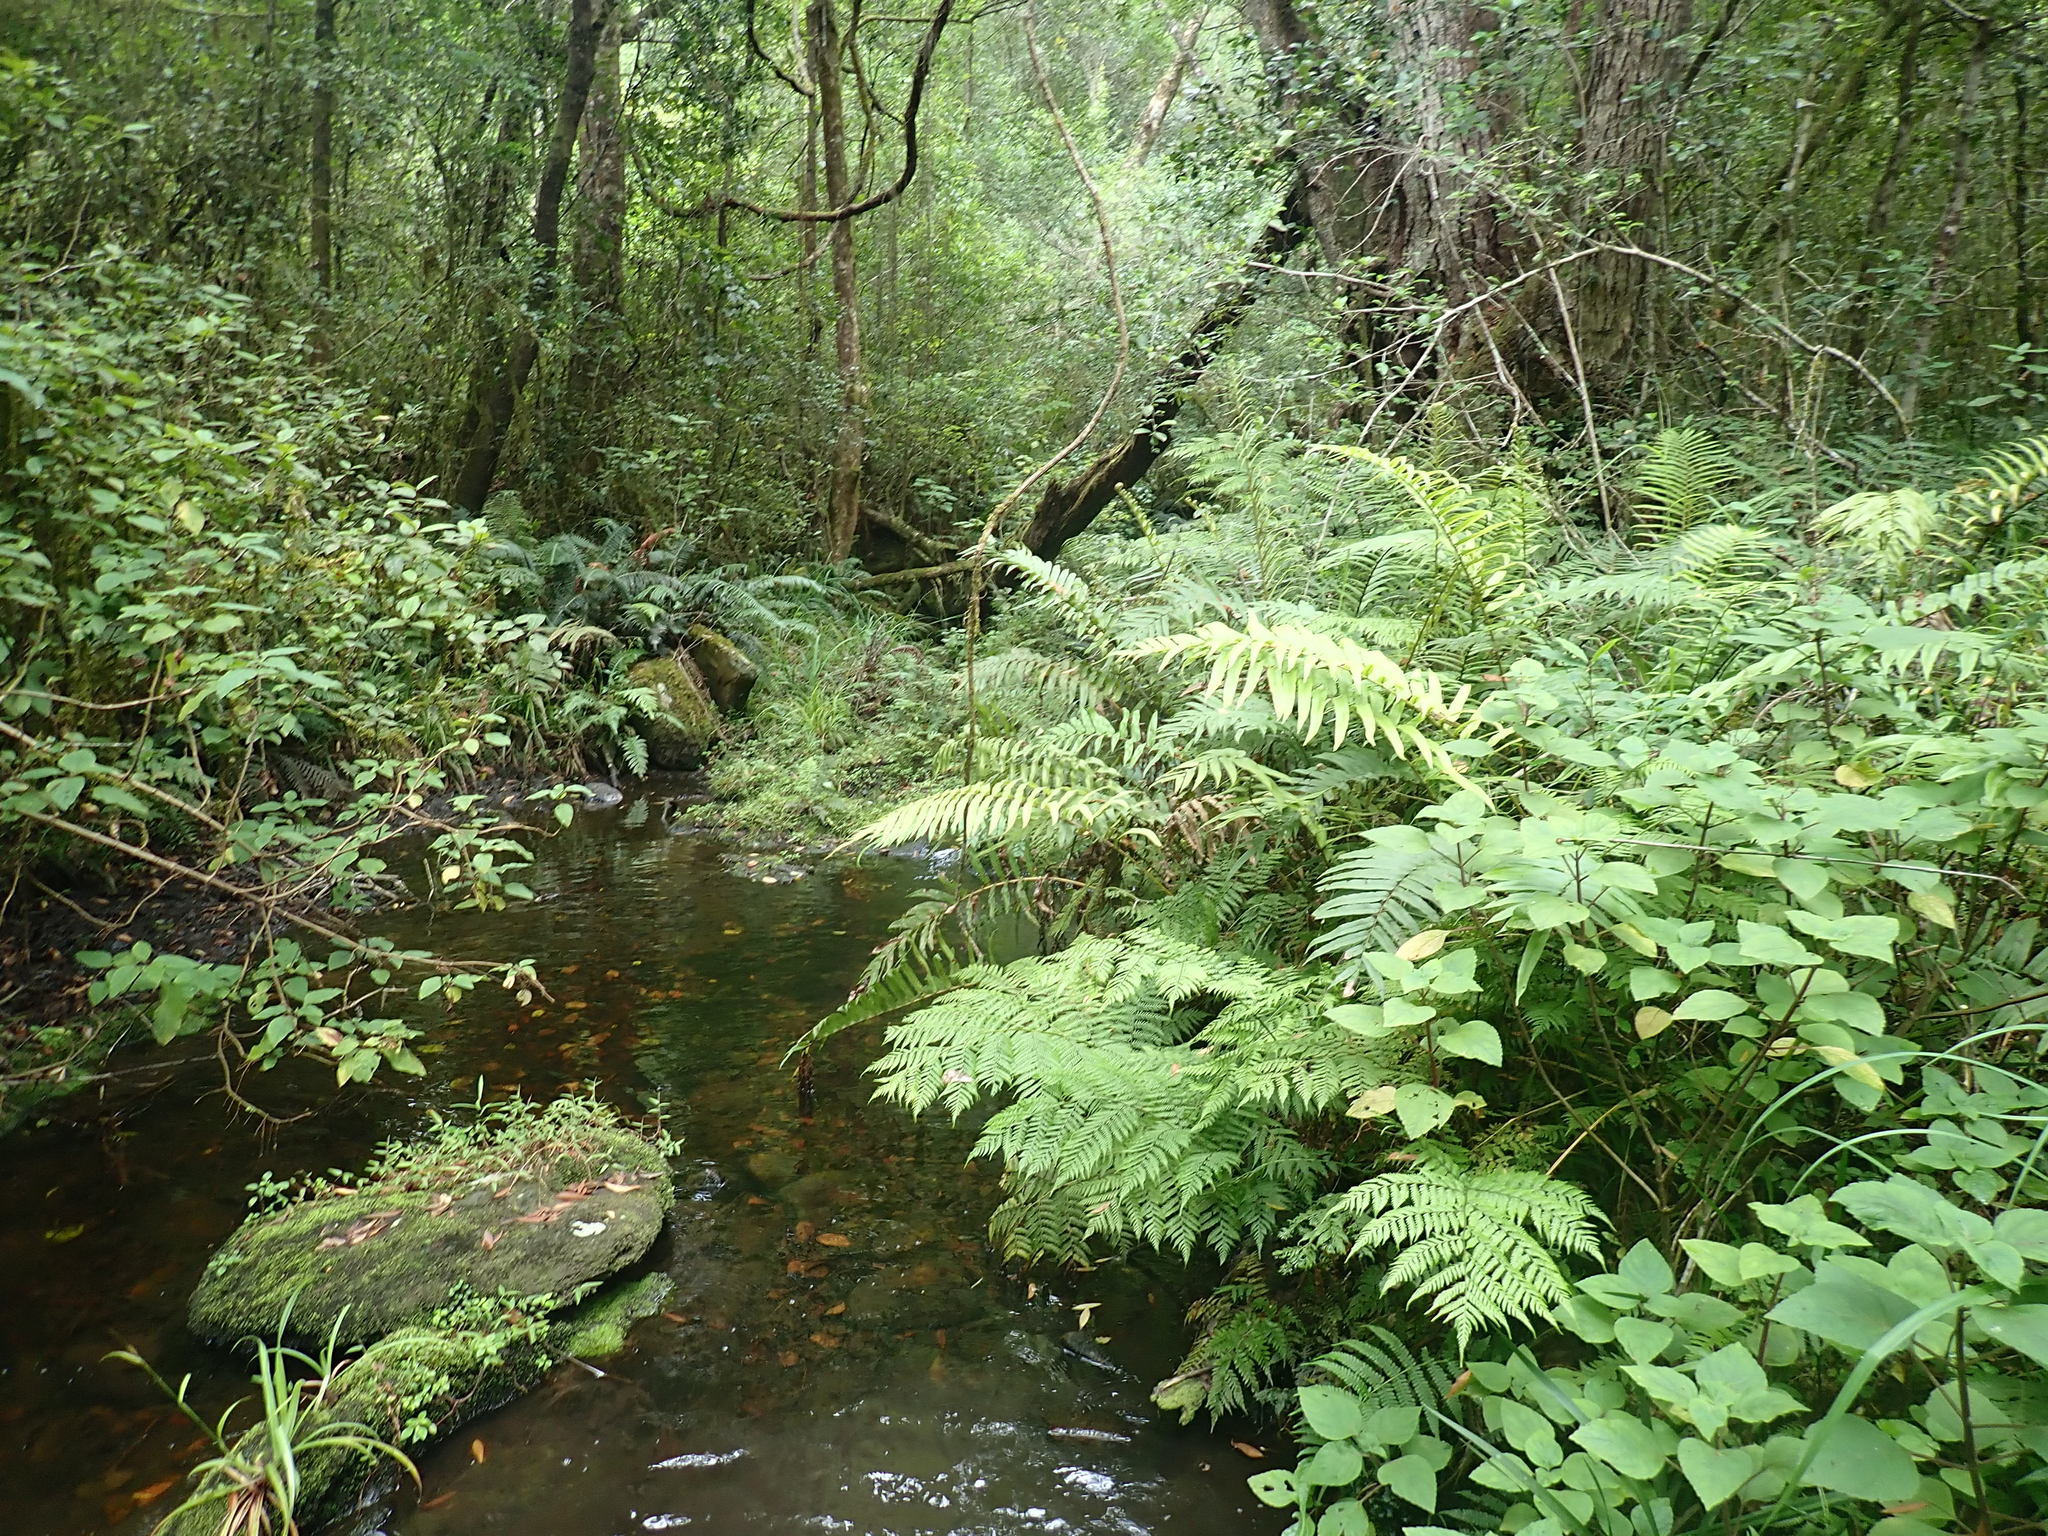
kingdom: Plantae
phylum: Tracheophyta
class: Magnoliopsida
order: Lamiales
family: Lamiaceae
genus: Plectranthus
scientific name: Plectranthus fruticosus
